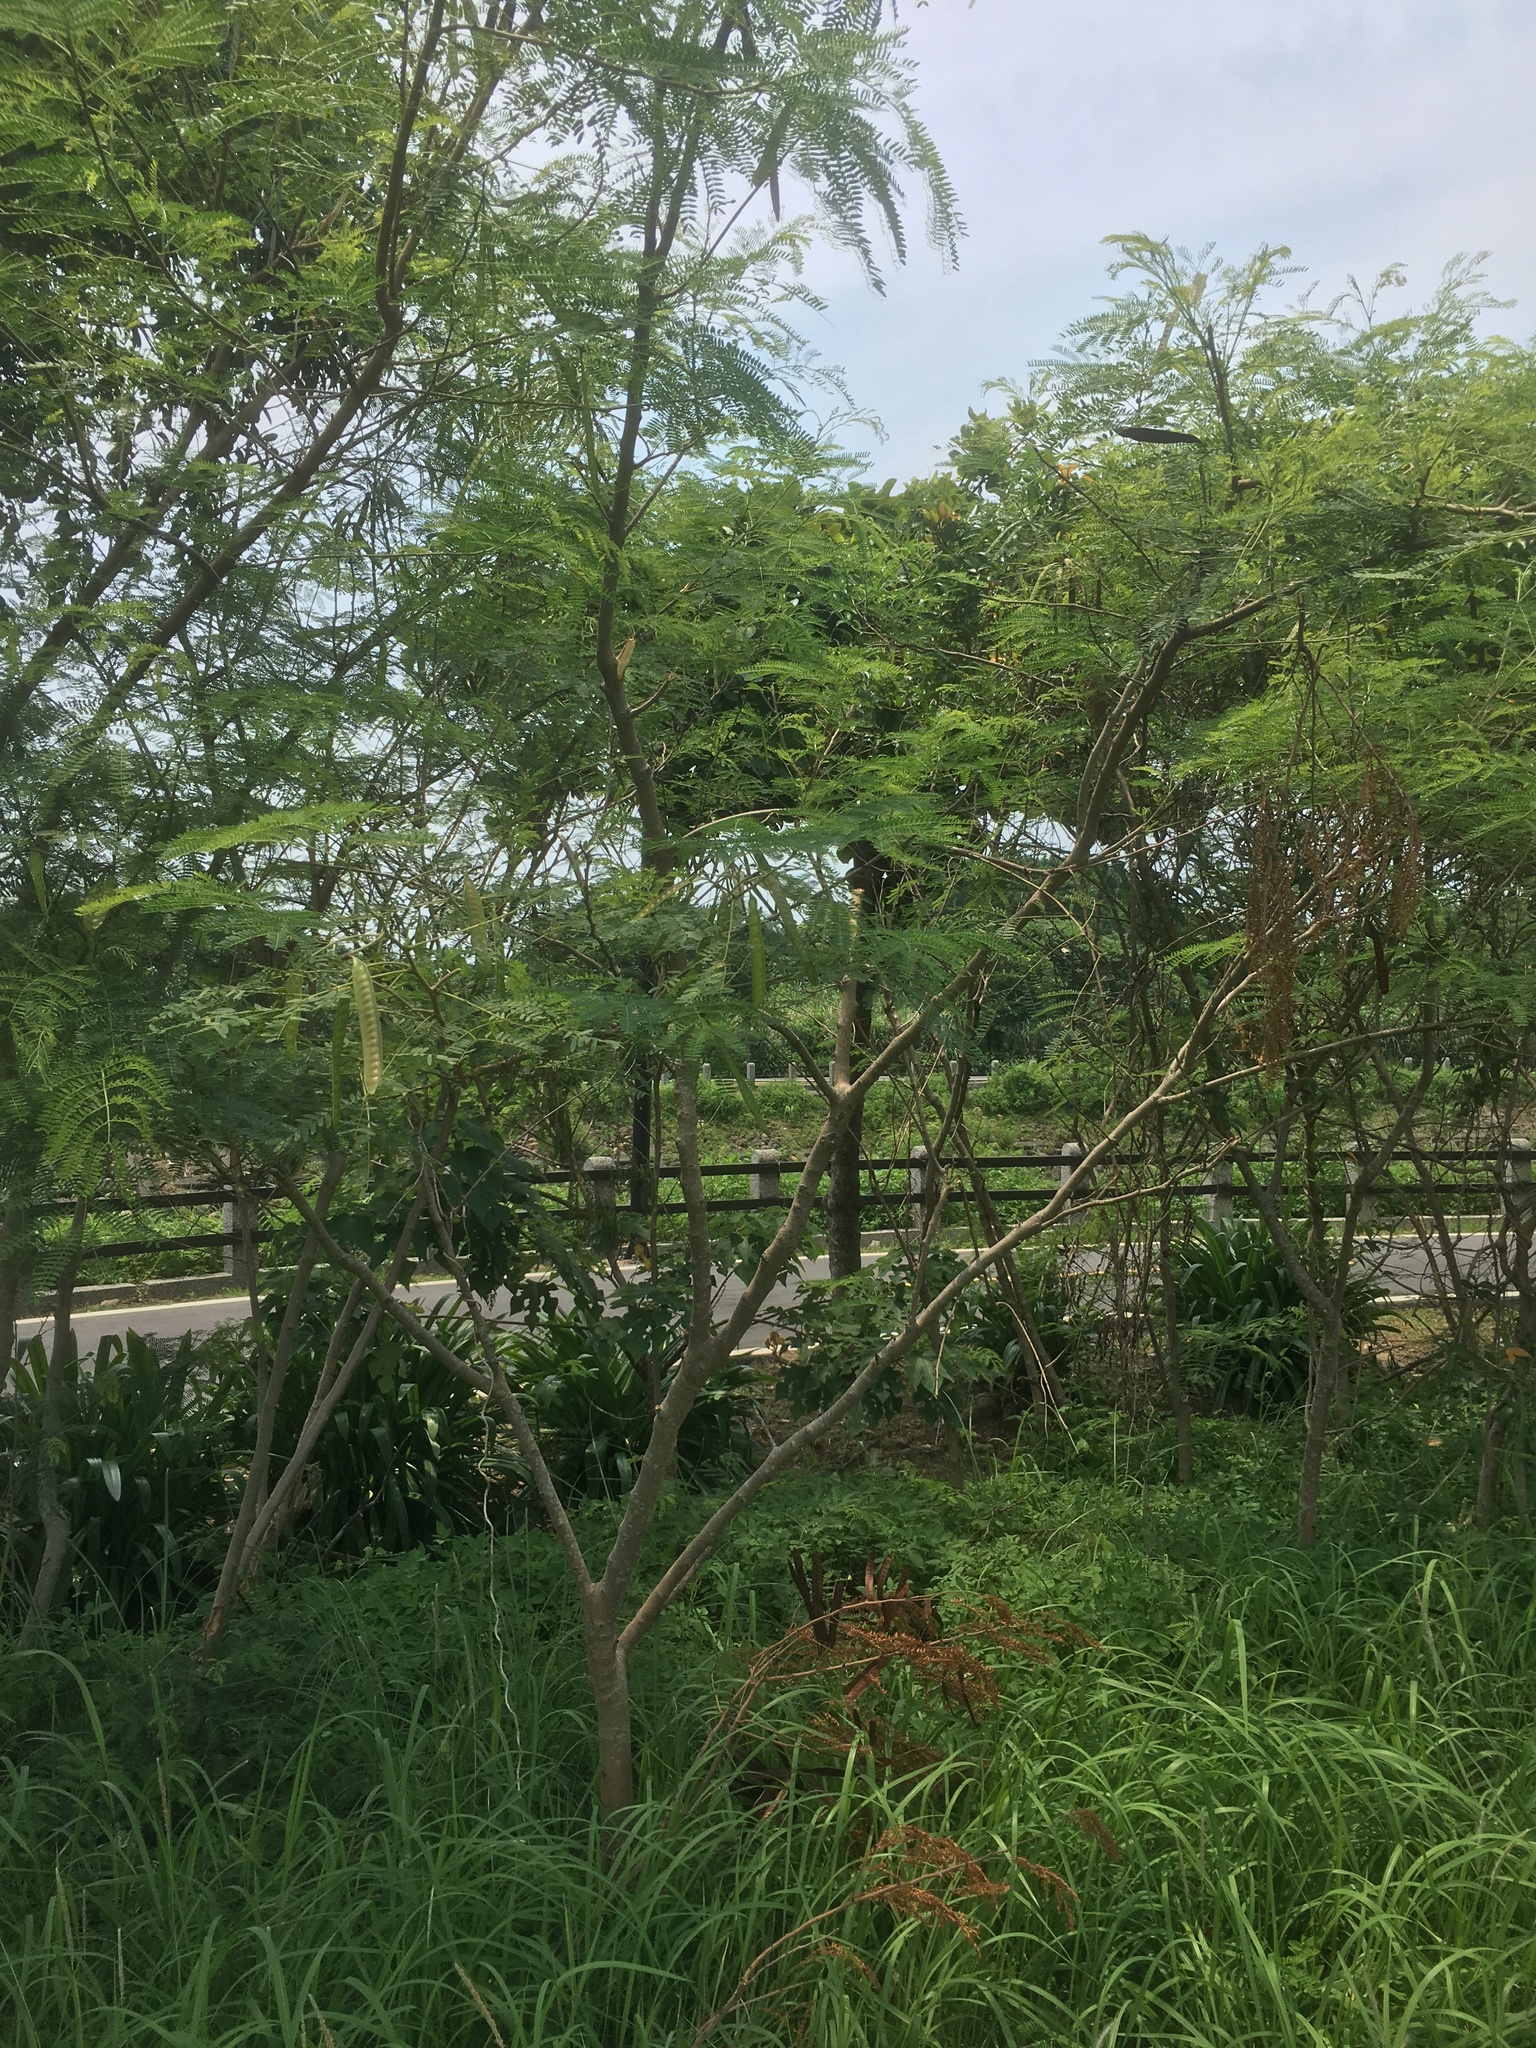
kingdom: Plantae
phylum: Tracheophyta
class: Magnoliopsida
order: Fabales
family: Fabaceae
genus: Leucaena
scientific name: Leucaena leucocephala
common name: White leadtree
